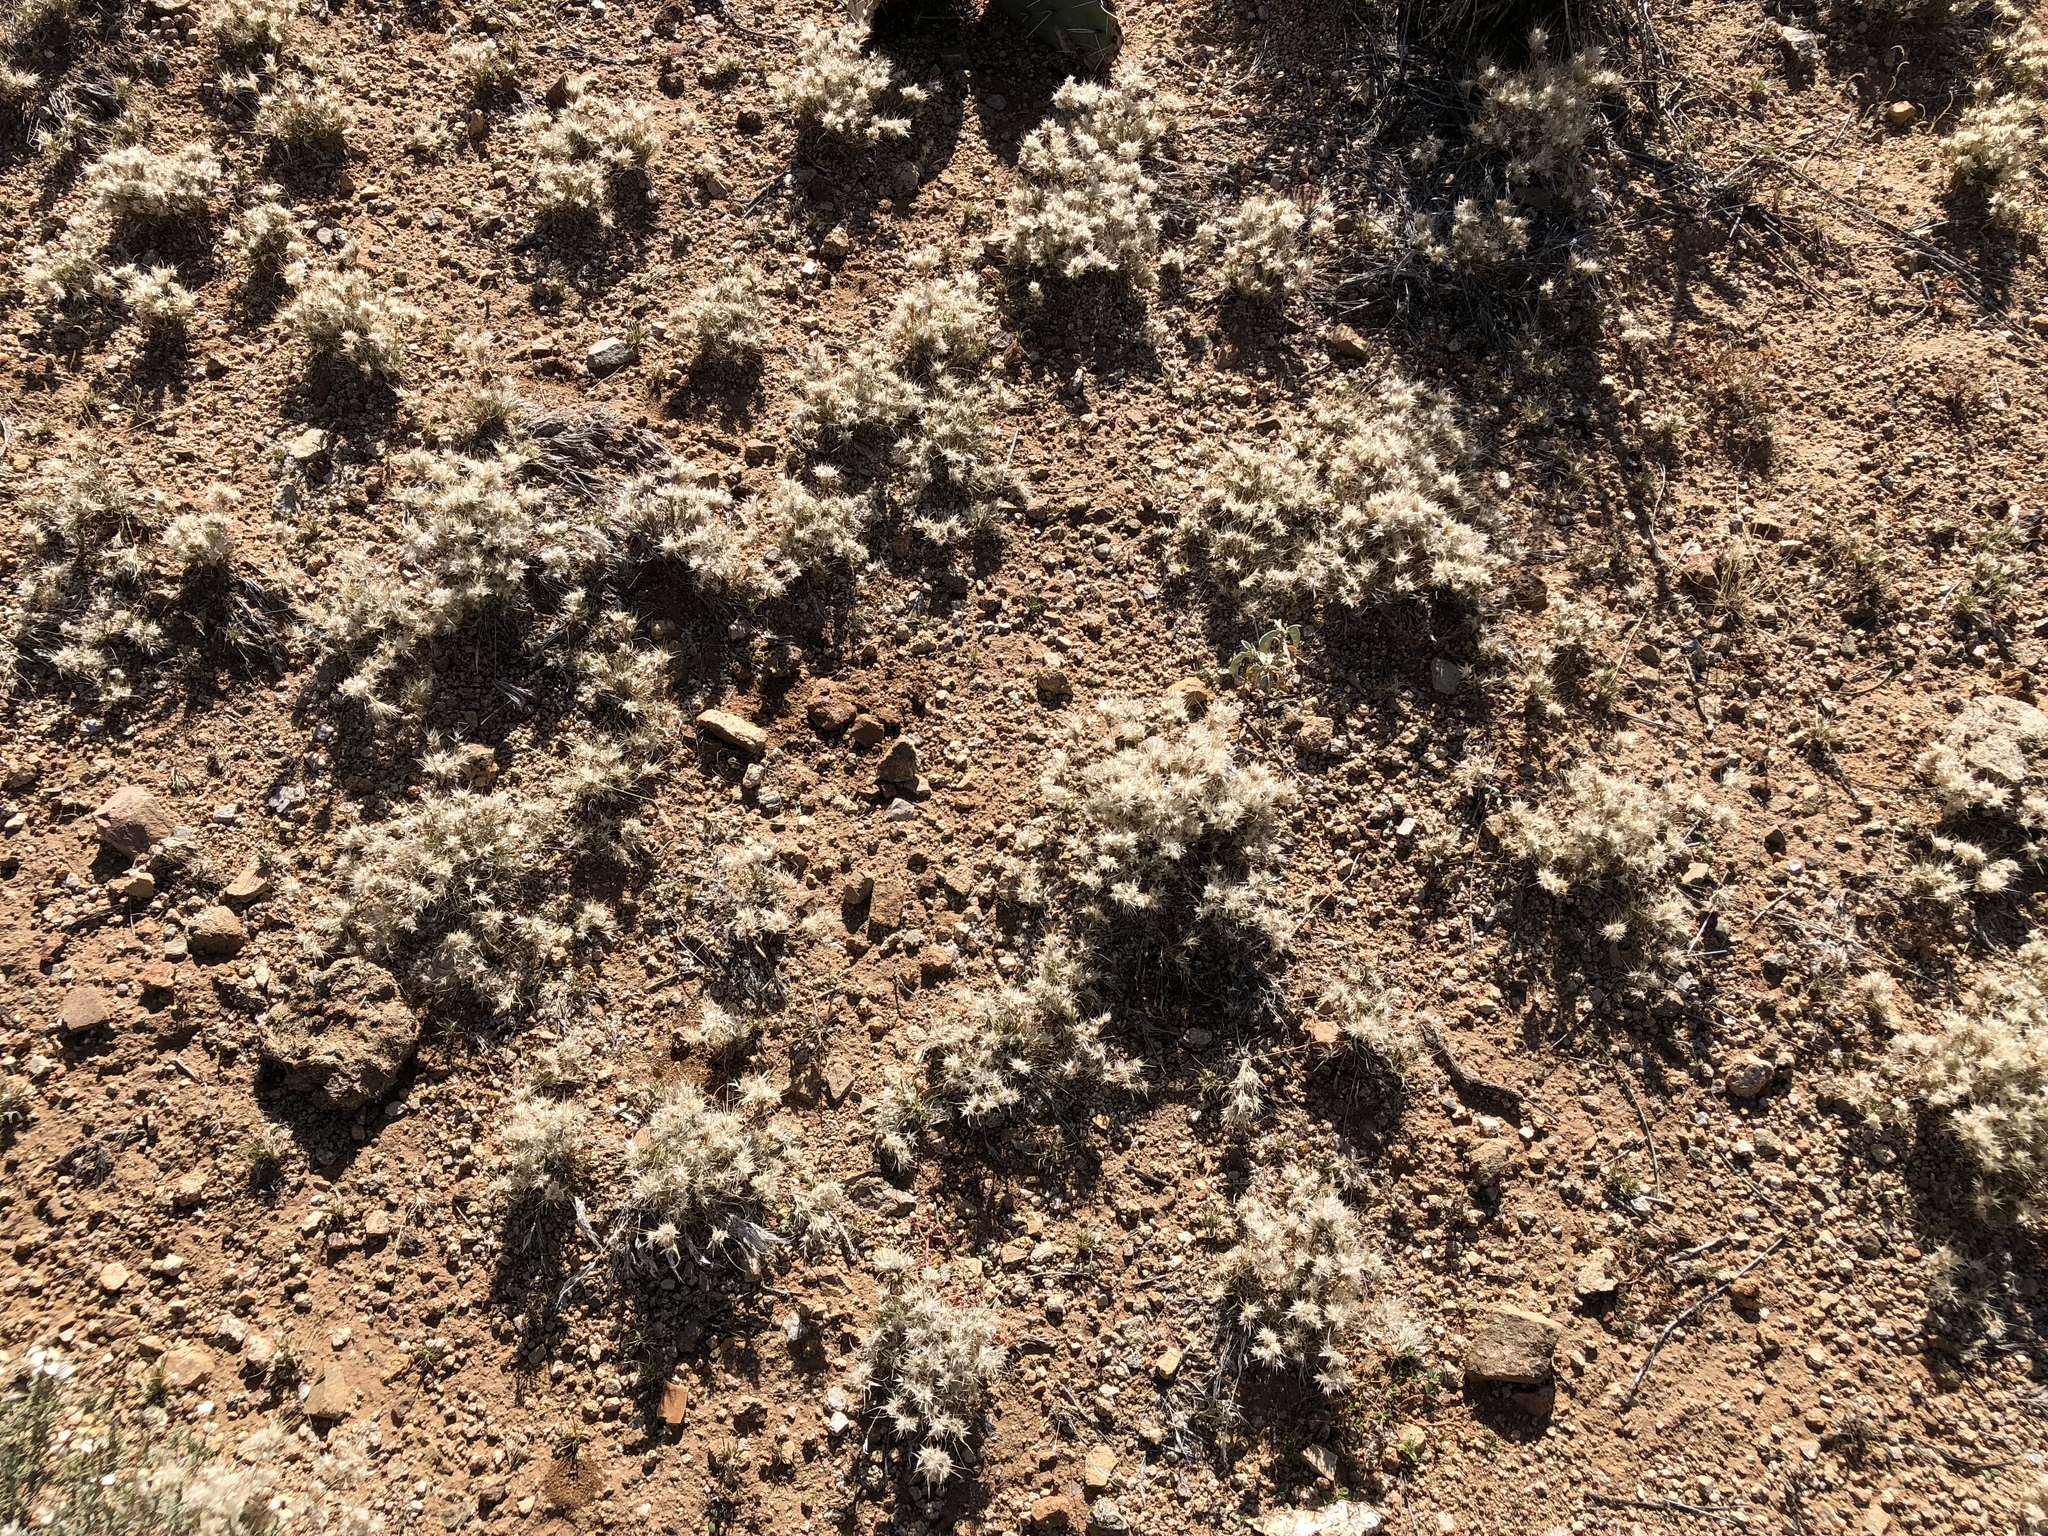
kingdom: Plantae
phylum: Tracheophyta
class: Liliopsida
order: Poales
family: Poaceae
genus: Dasyochloa
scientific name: Dasyochloa pulchella
